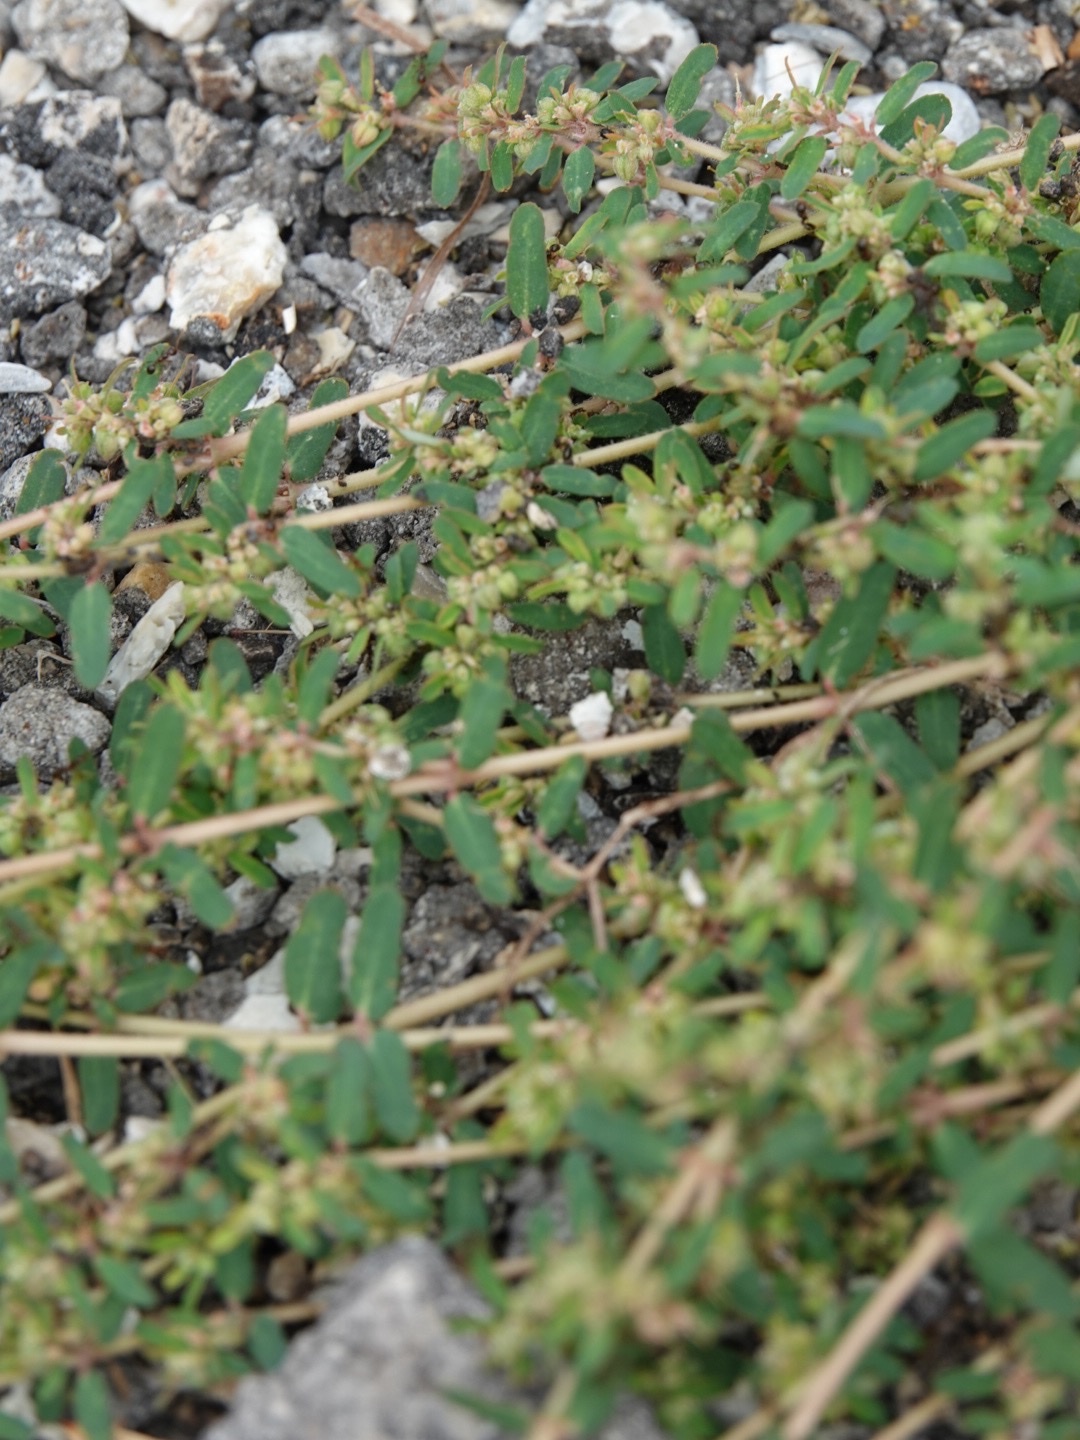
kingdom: Plantae
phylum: Tracheophyta
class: Magnoliopsida
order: Malpighiales
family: Euphorbiaceae
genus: Euphorbia
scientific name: Euphorbia maculata
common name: Spotted spurge
